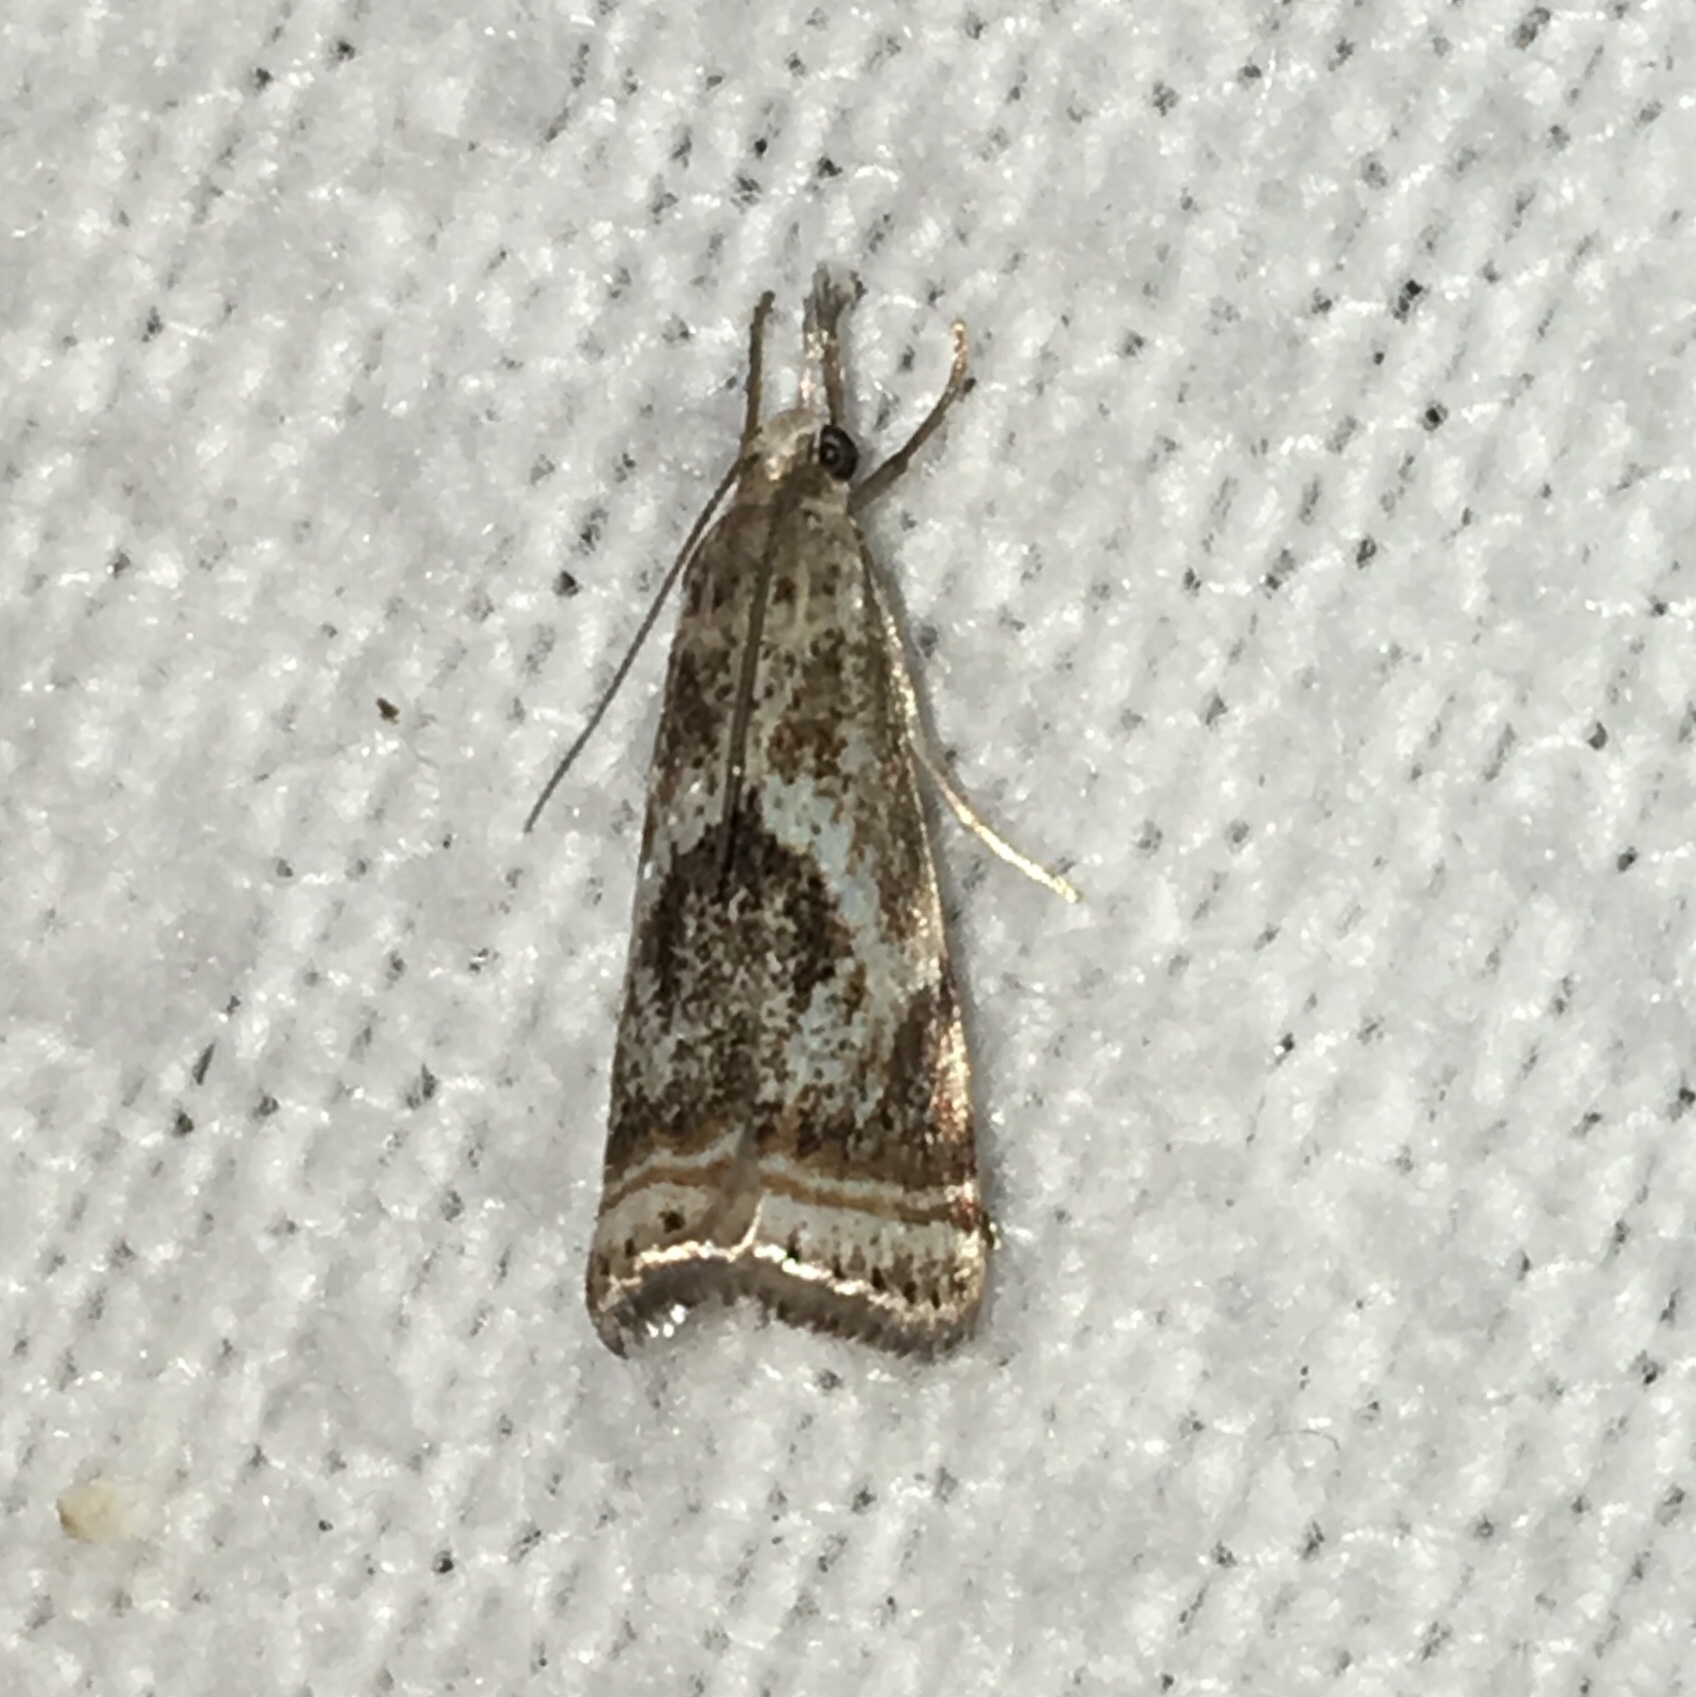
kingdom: Animalia
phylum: Arthropoda
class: Insecta
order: Lepidoptera
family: Crambidae
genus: Microcrambus
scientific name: Microcrambus elegans
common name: Elegant grass-veneer
